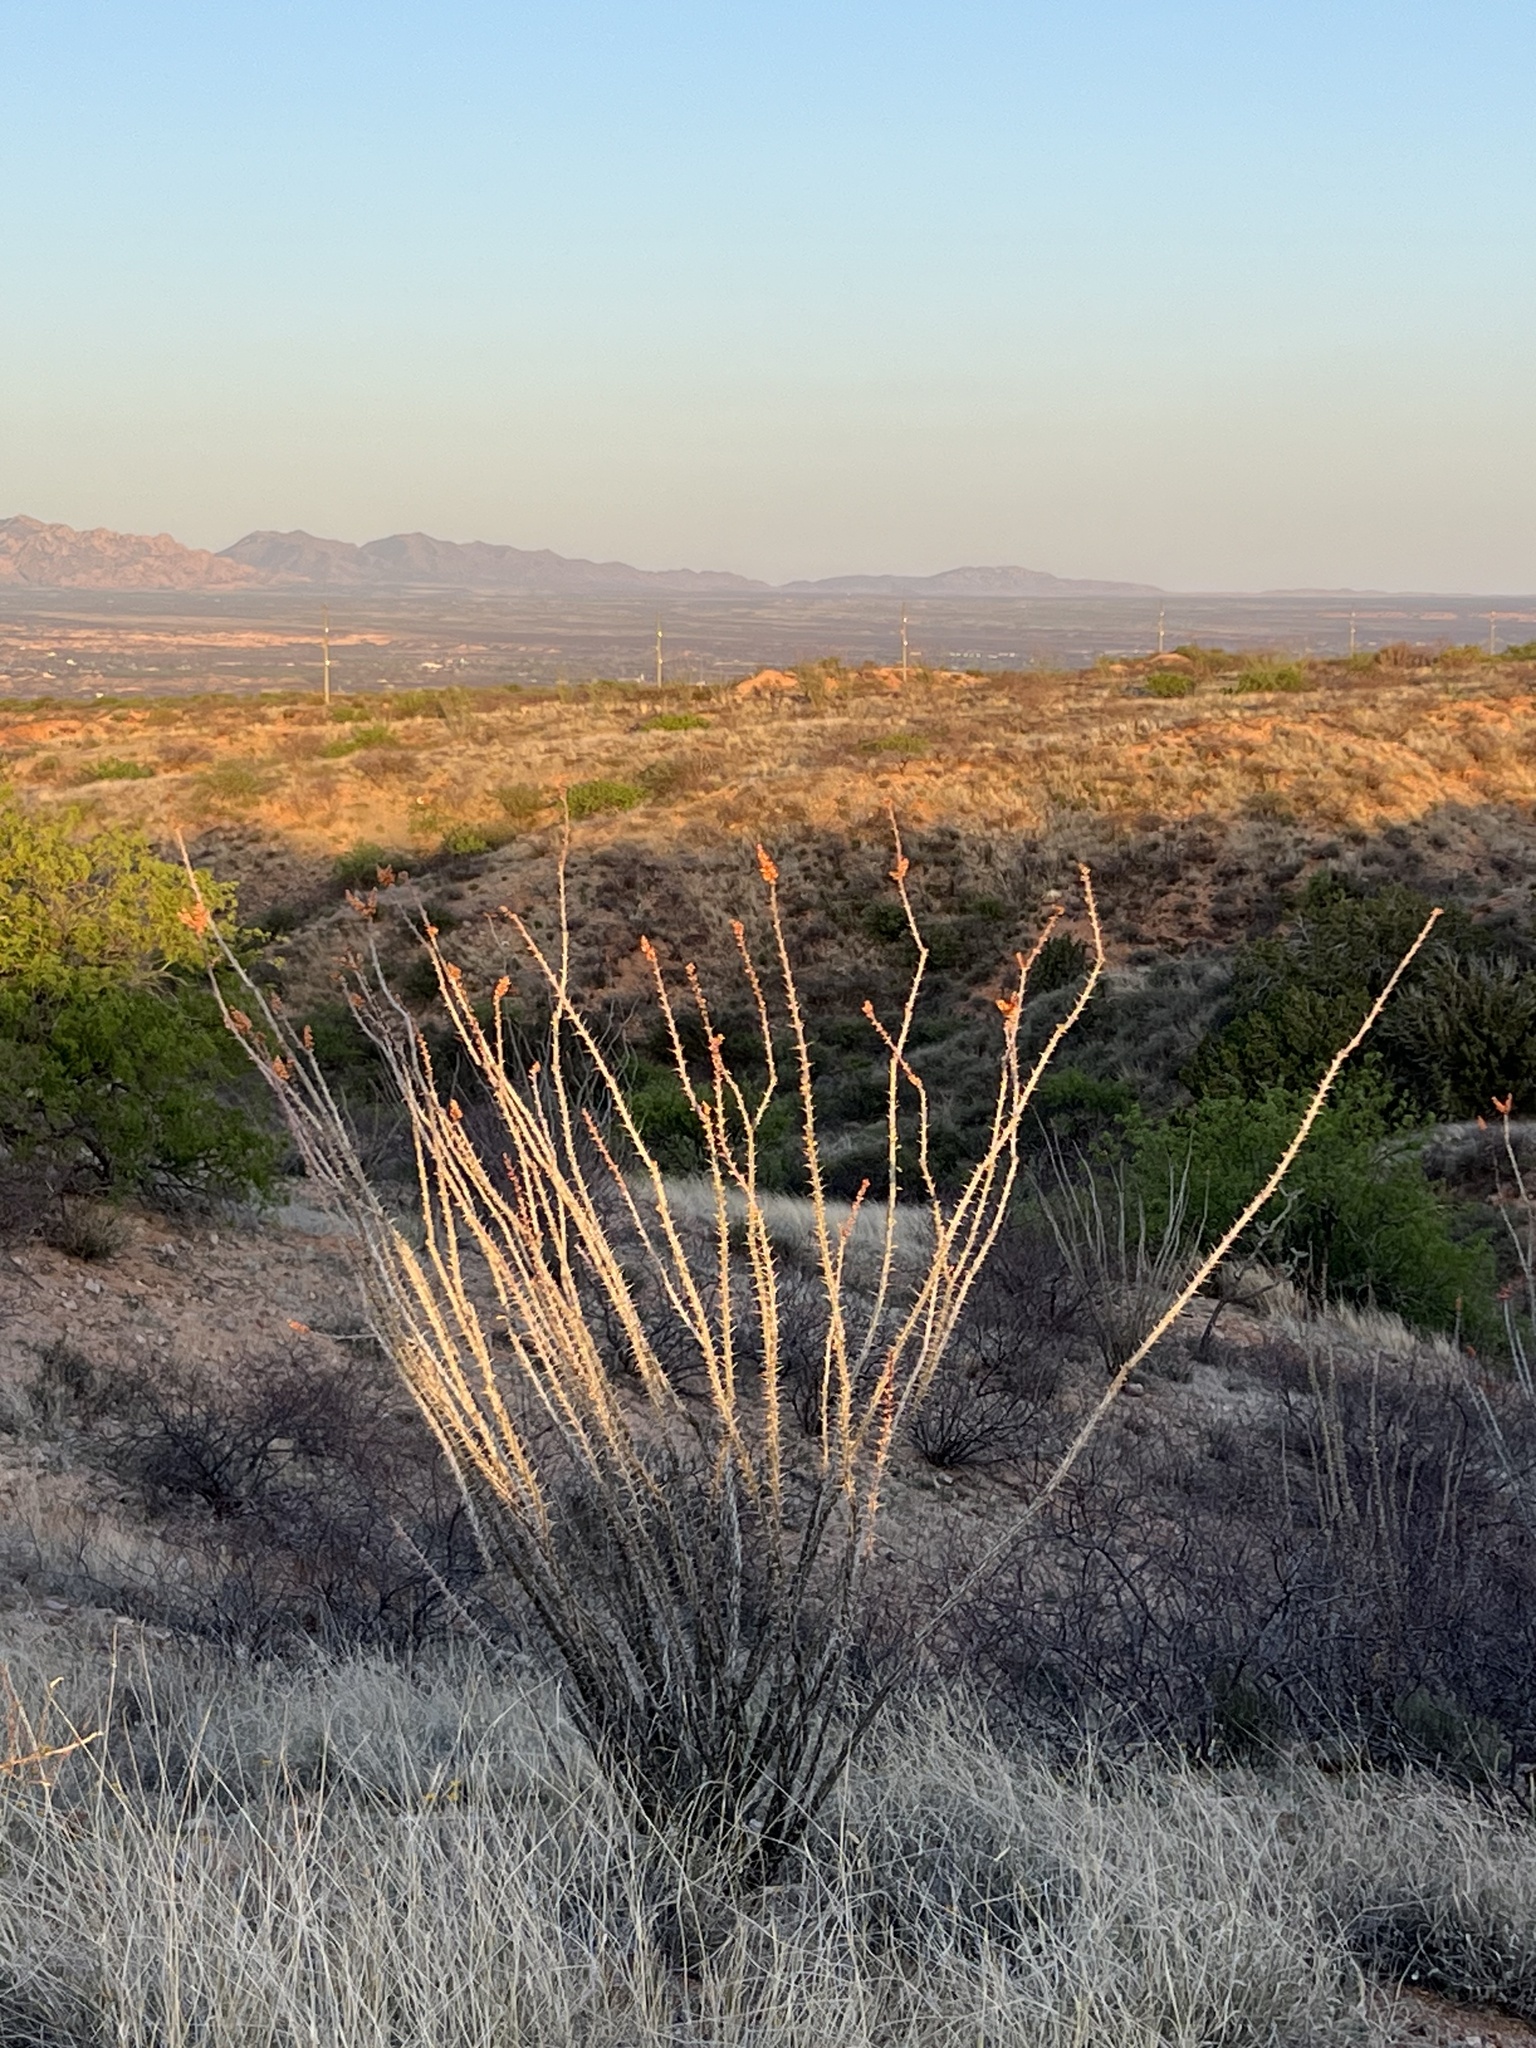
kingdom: Plantae
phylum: Tracheophyta
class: Magnoliopsida
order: Ericales
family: Fouquieriaceae
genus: Fouquieria
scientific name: Fouquieria splendens
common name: Vine-cactus
